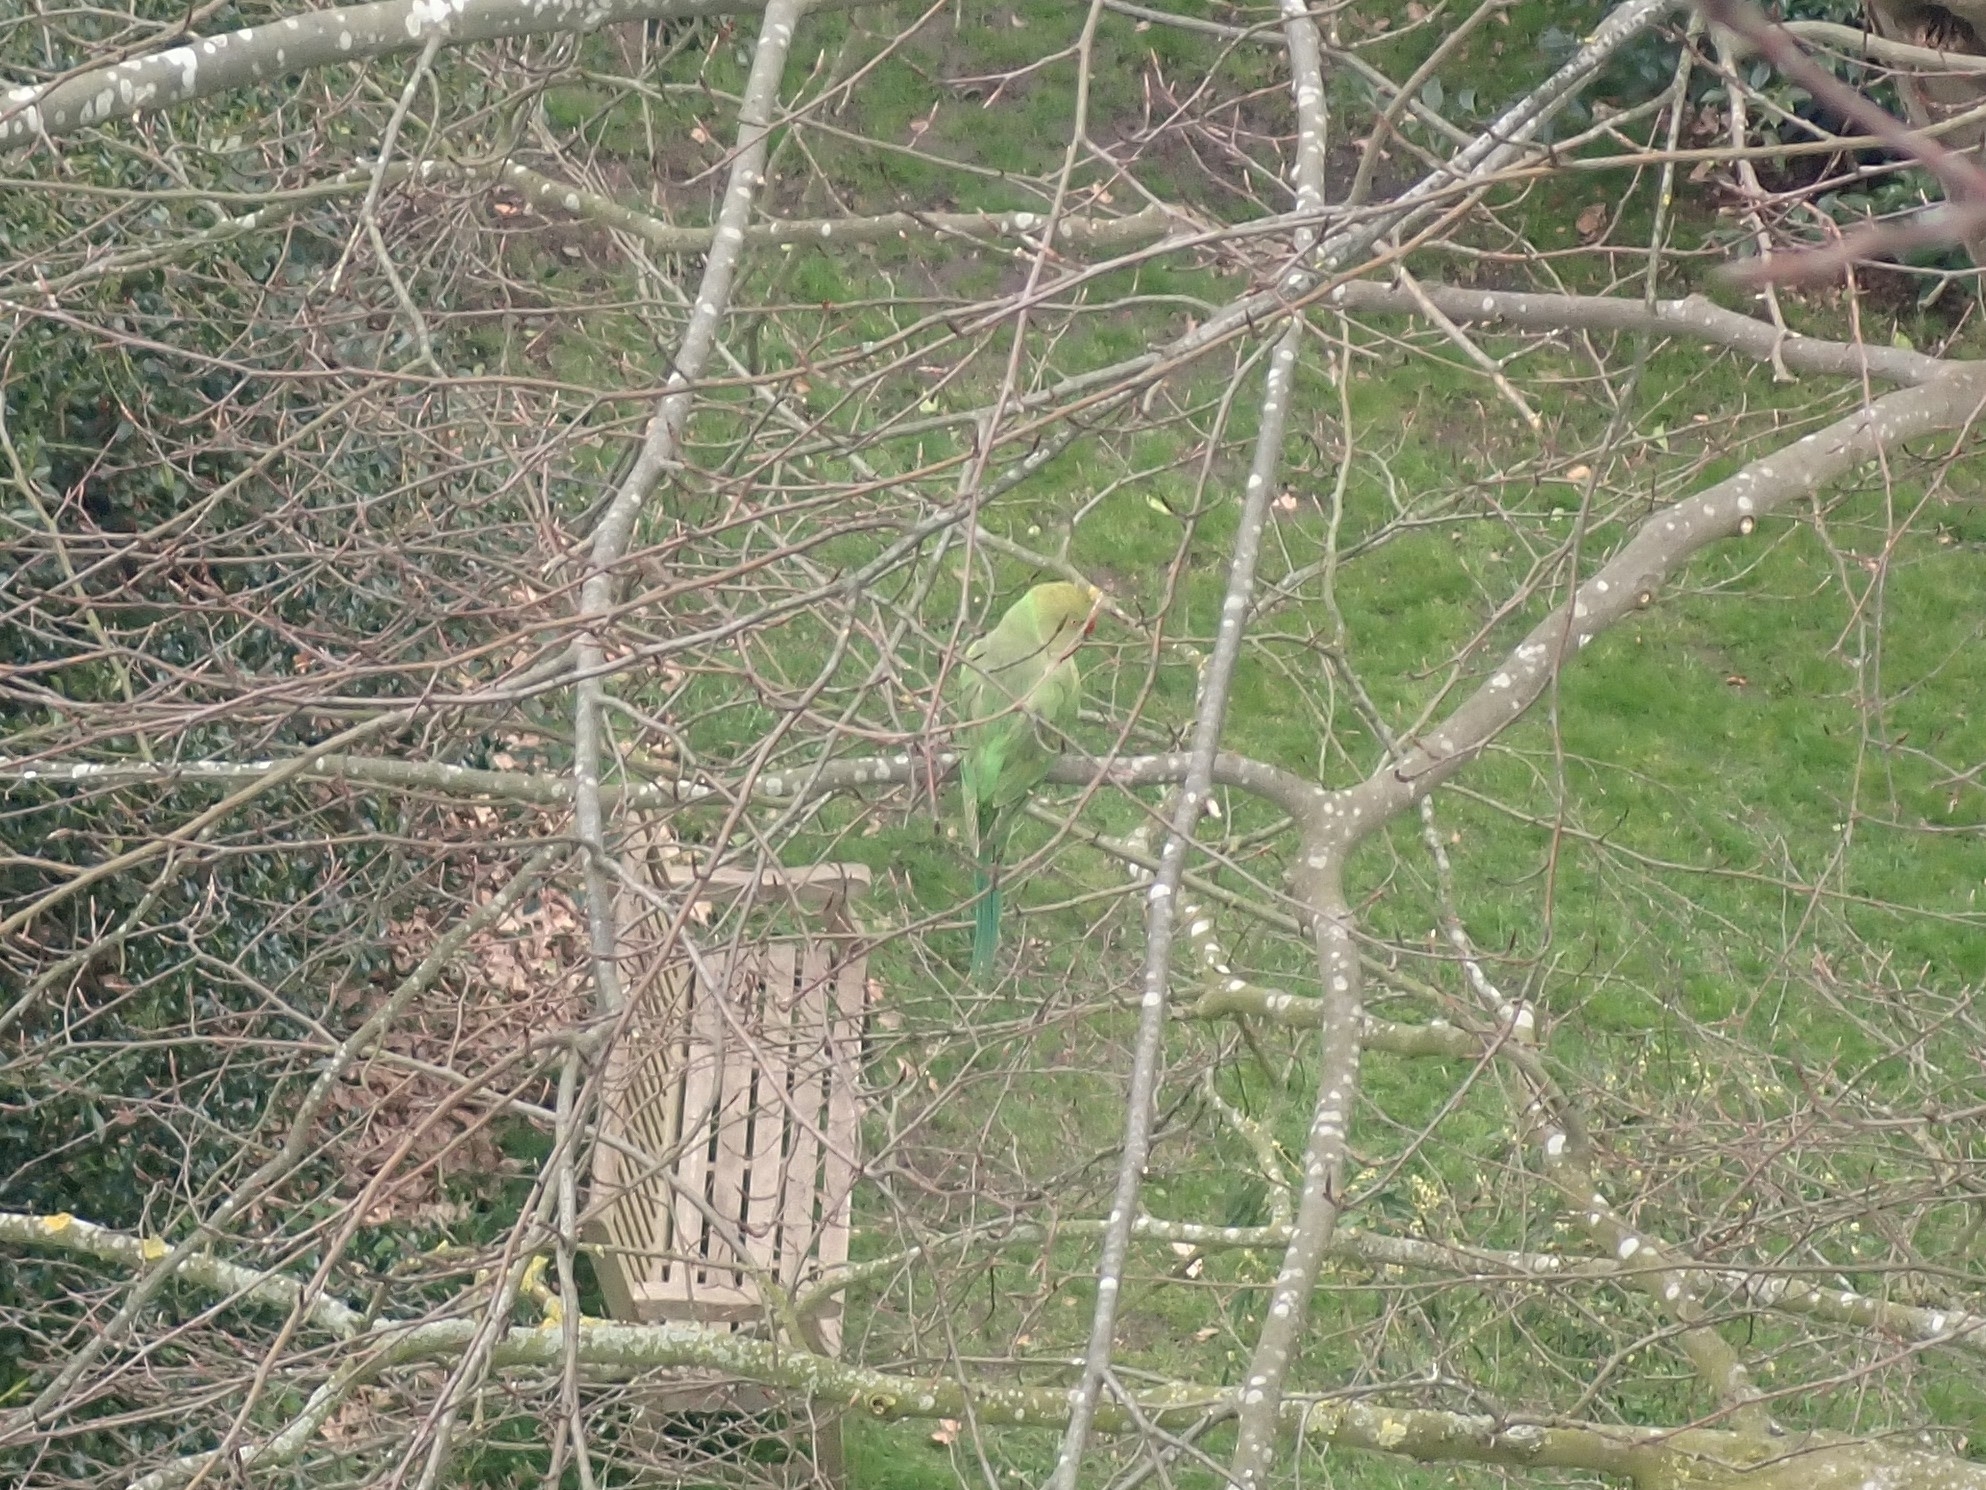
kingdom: Animalia
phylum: Chordata
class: Aves
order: Psittaciformes
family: Psittacidae
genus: Psittacula
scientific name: Psittacula krameri
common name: Rose-ringed parakeet
